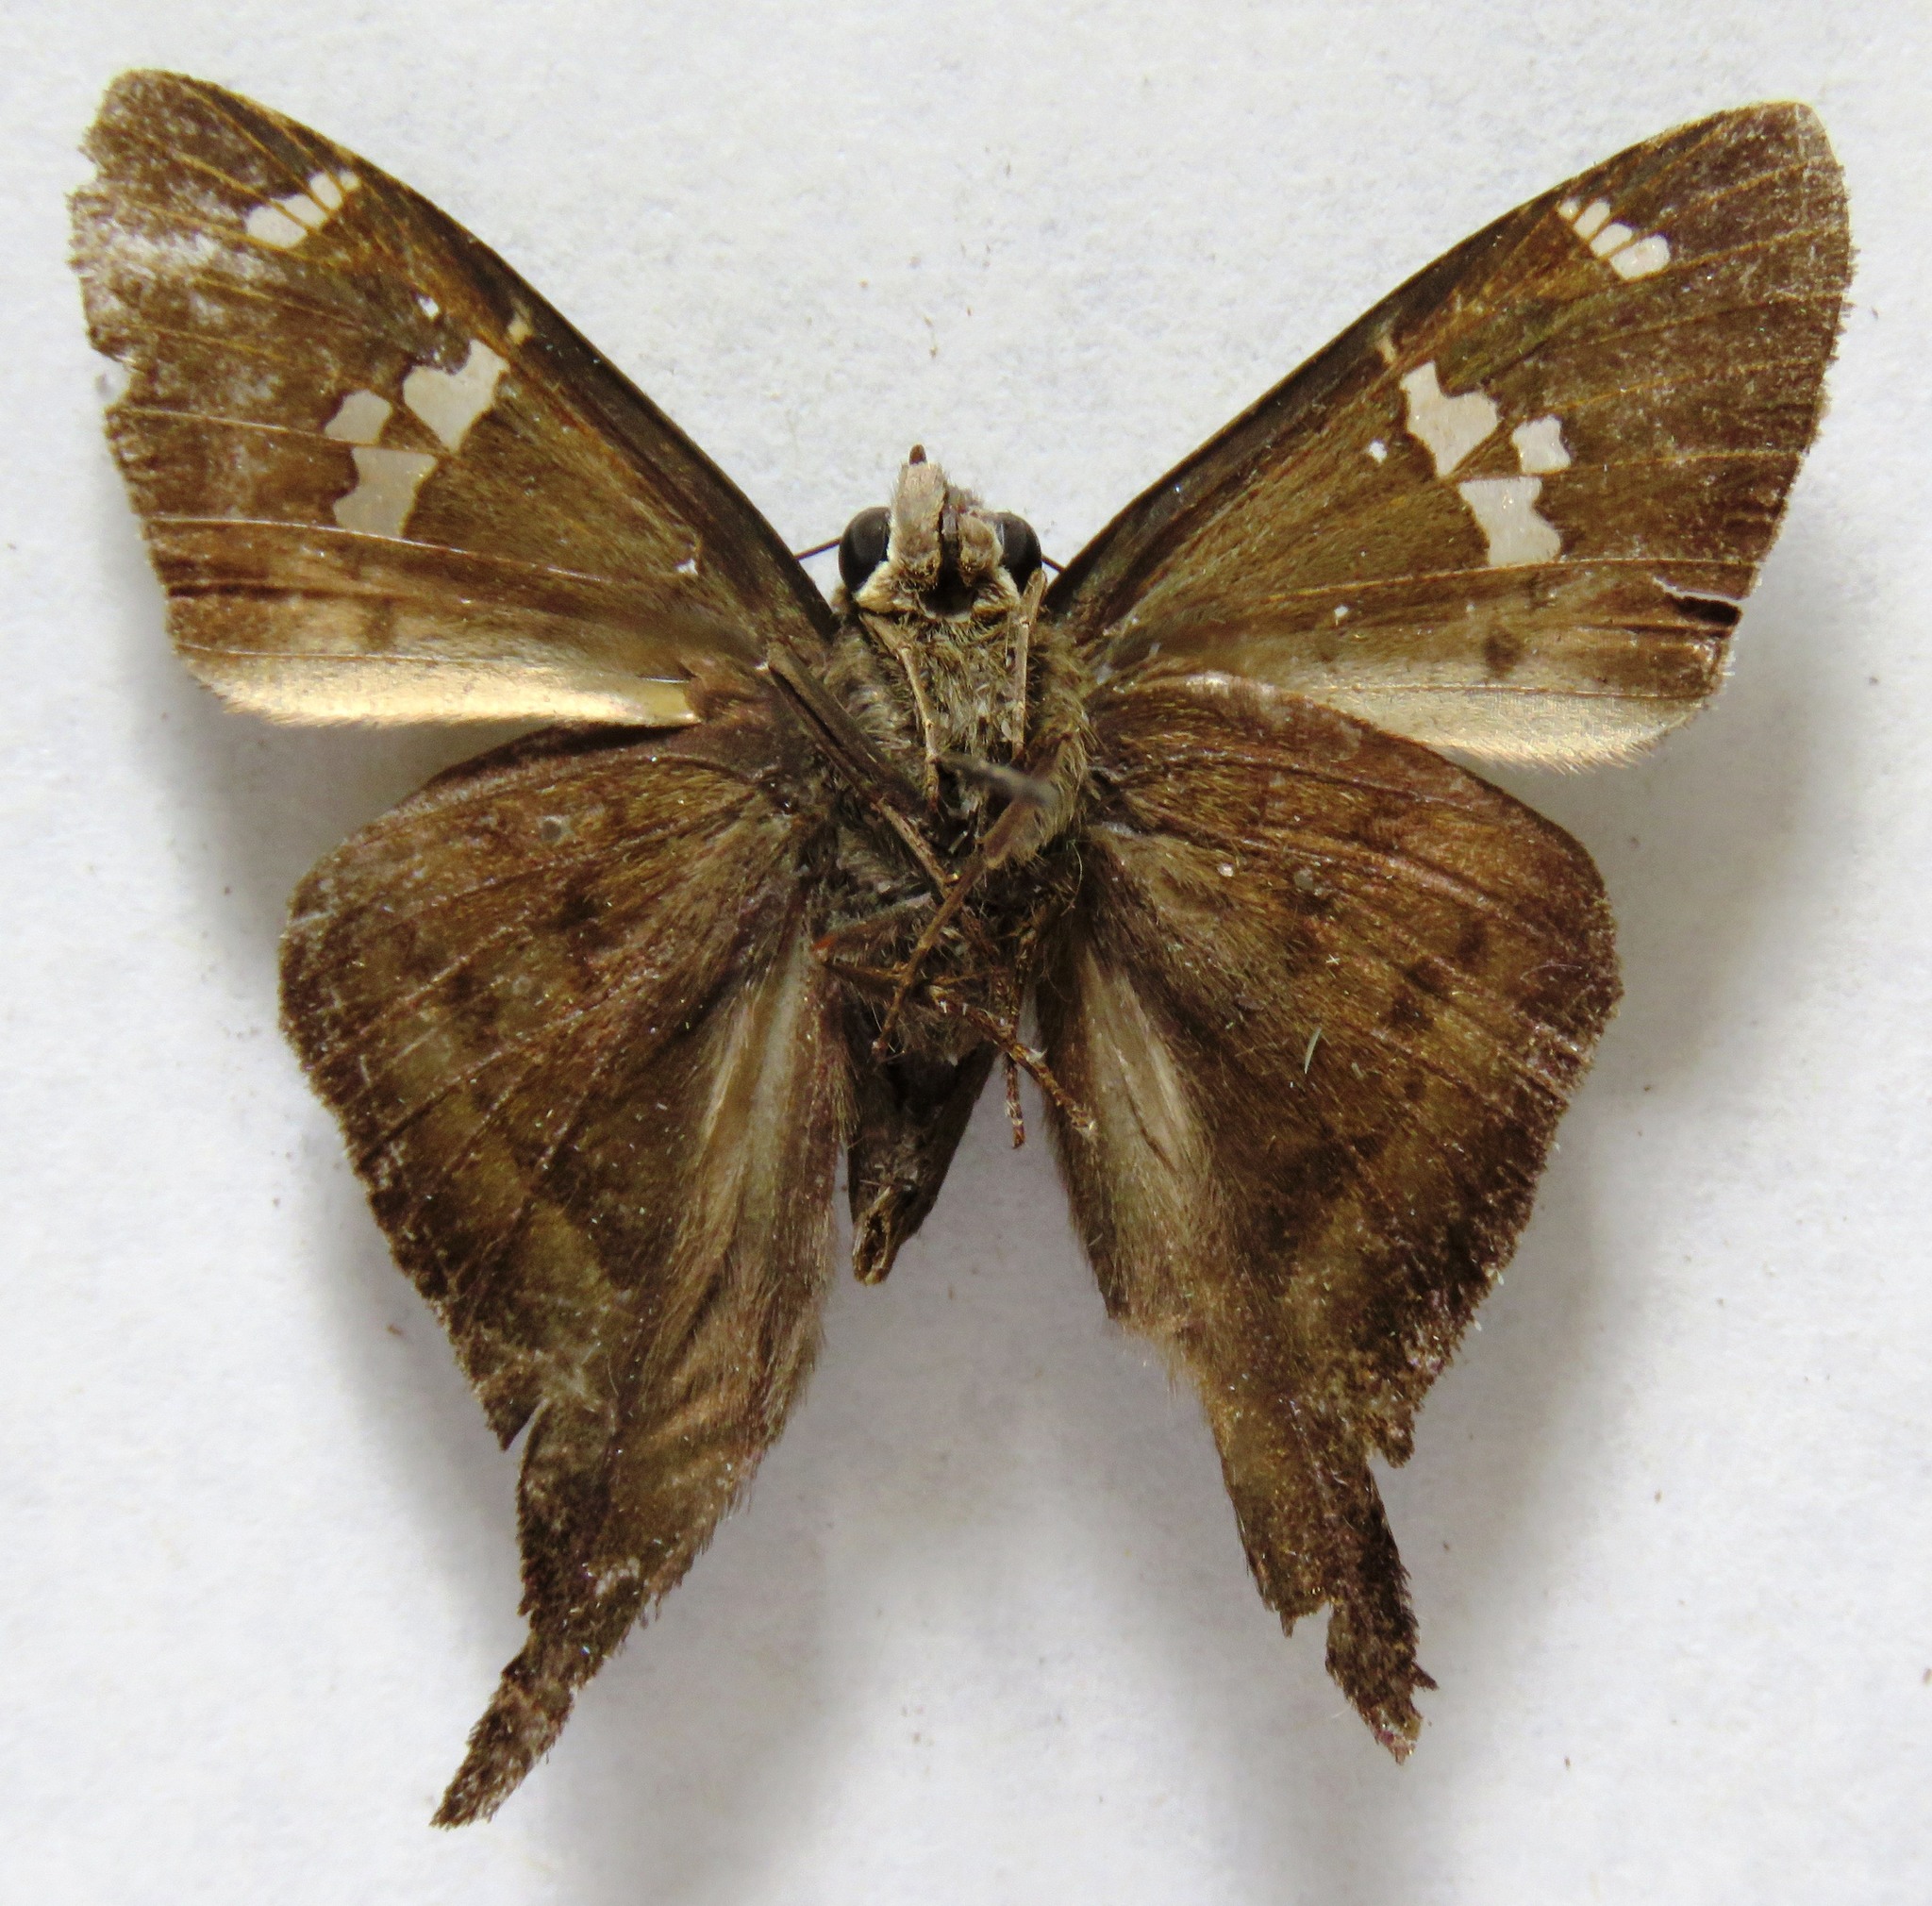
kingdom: Animalia
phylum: Arthropoda
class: Insecta
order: Lepidoptera
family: Hesperiidae
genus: Ectomis
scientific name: Ectomis
